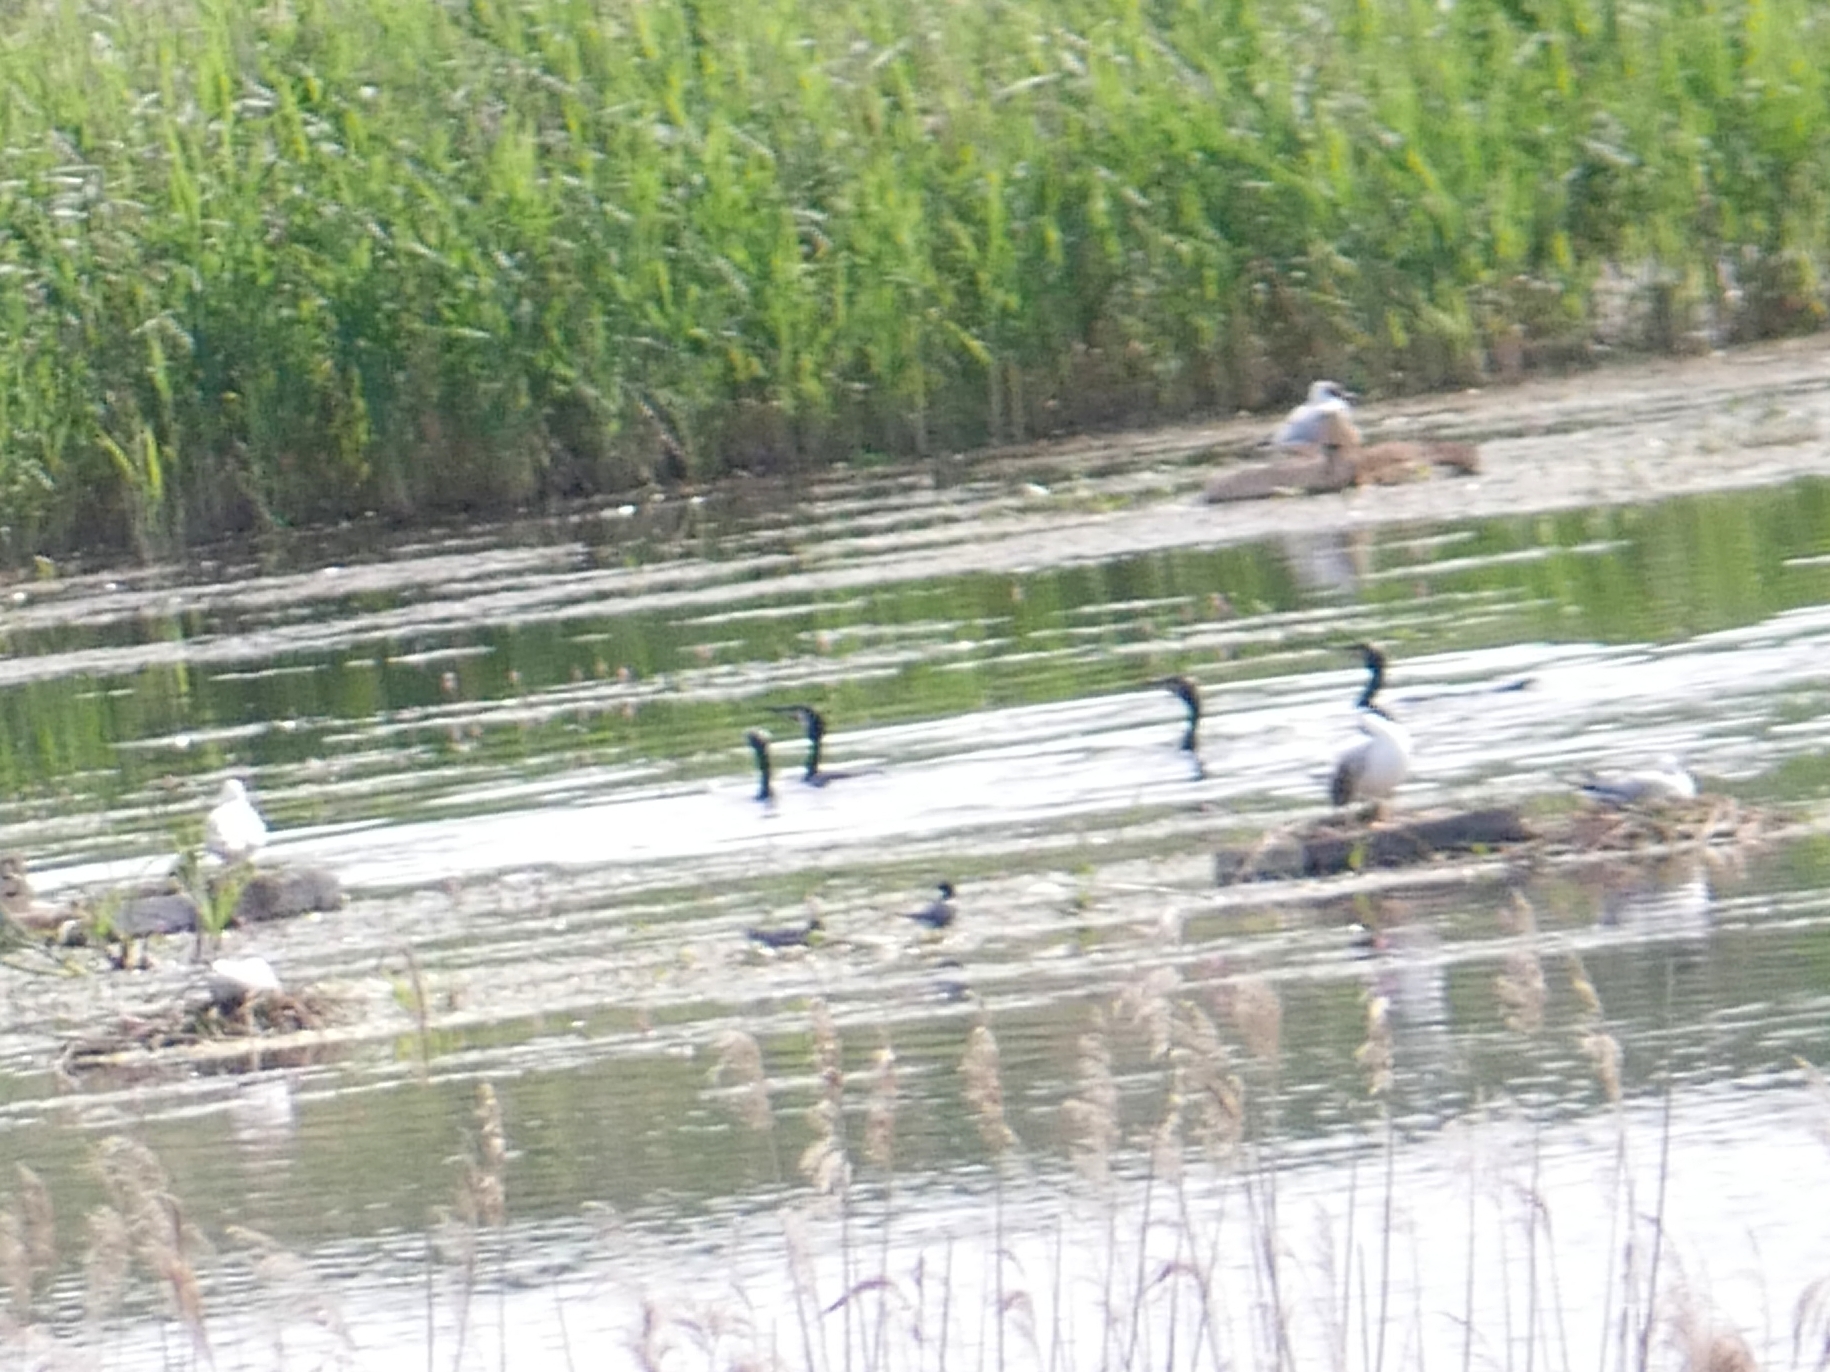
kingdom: Animalia
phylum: Chordata
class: Aves
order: Suliformes
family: Phalacrocoracidae
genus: Phalacrocorax
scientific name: Phalacrocorax carbo
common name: Great cormorant
